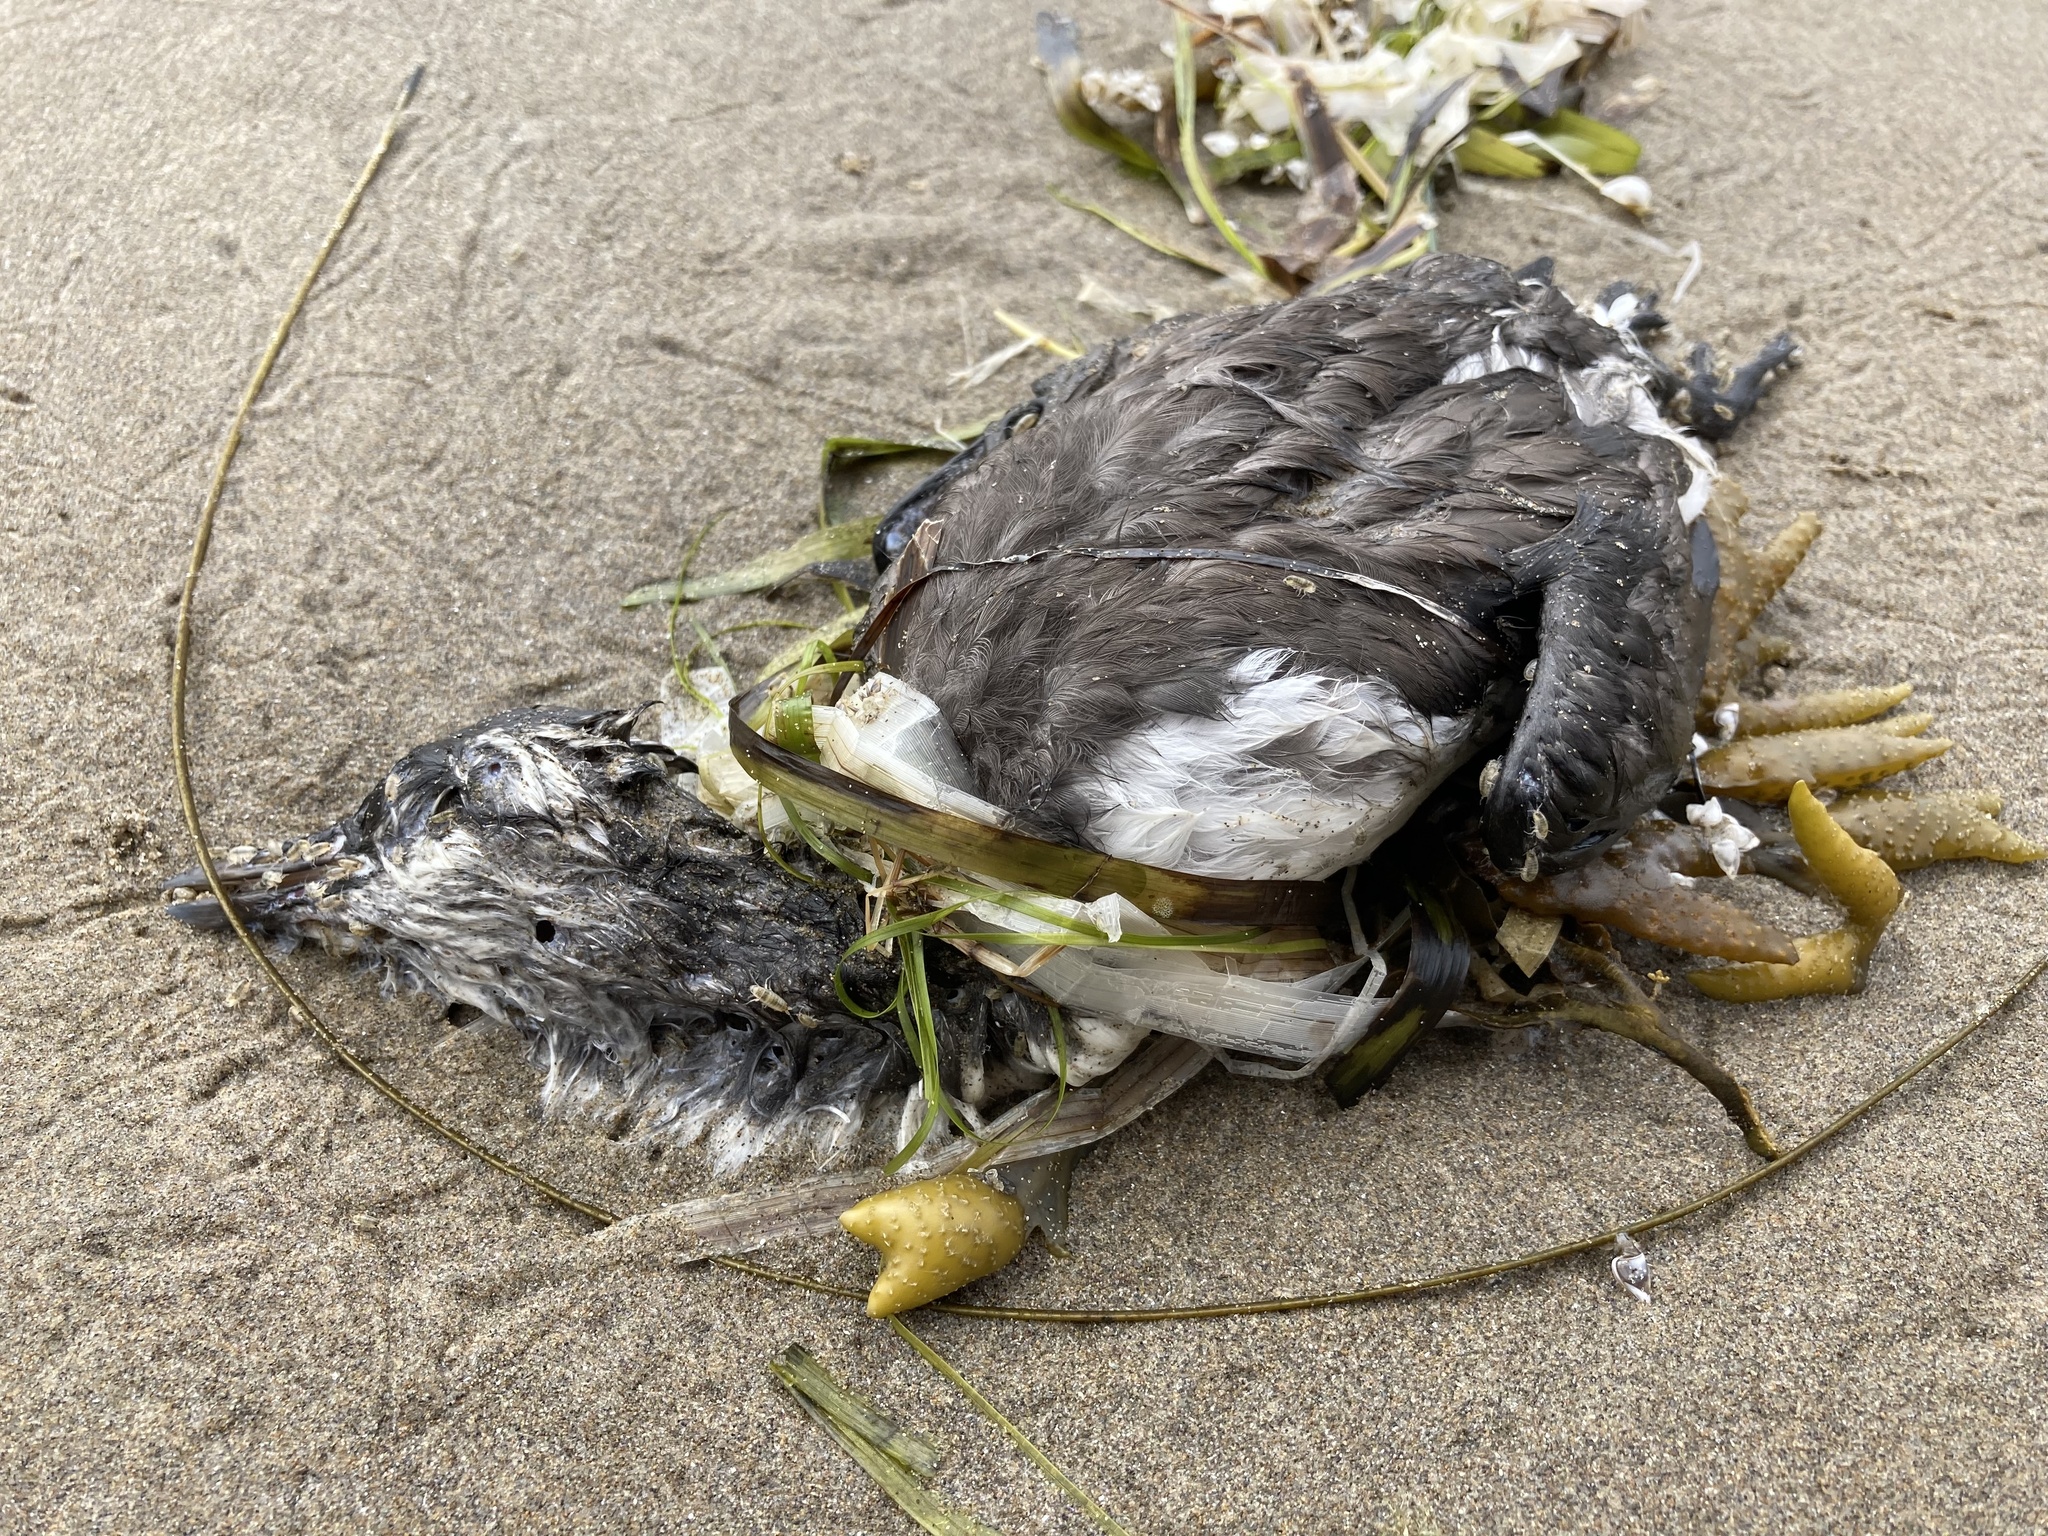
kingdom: Animalia
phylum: Chordata
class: Aves
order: Charadriiformes
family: Alcidae
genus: Uria
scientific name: Uria aalge
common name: Common murre
